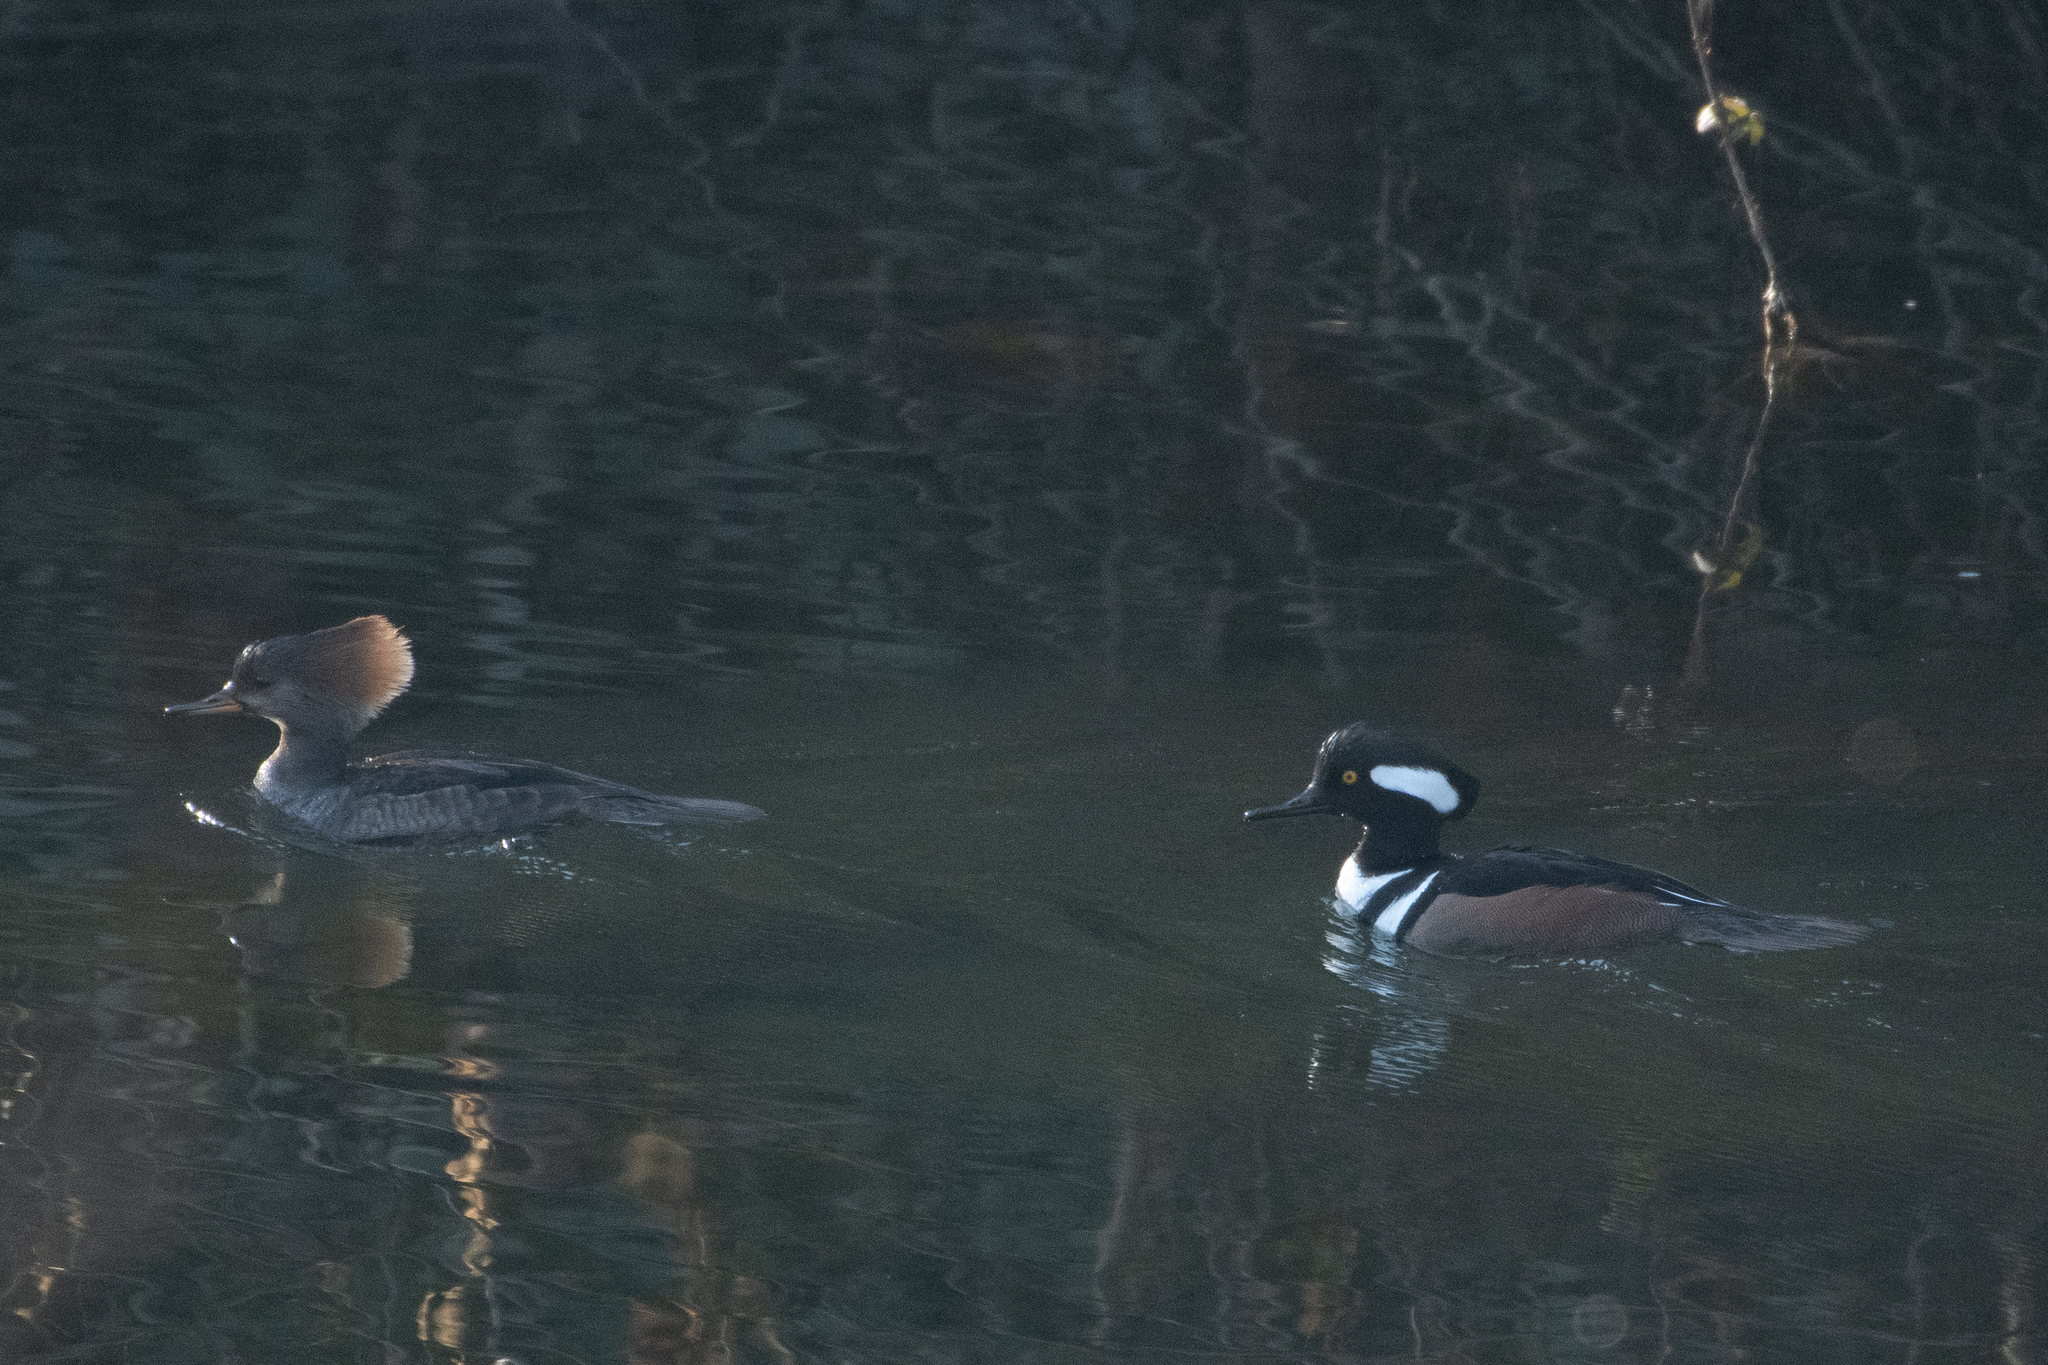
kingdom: Animalia
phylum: Chordata
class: Aves
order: Anseriformes
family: Anatidae
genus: Lophodytes
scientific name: Lophodytes cucullatus
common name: Hooded merganser
